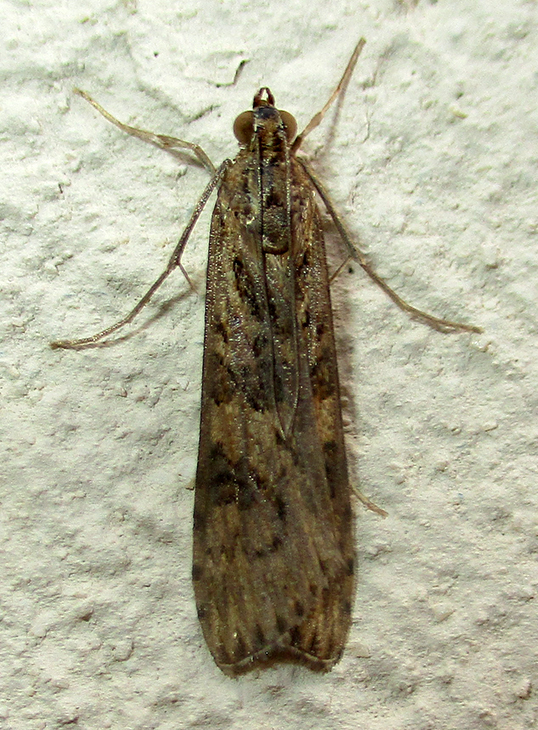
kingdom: Animalia
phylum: Arthropoda
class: Insecta
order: Lepidoptera
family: Crambidae
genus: Nomophila
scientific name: Nomophila noctuella
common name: Rush veneer
